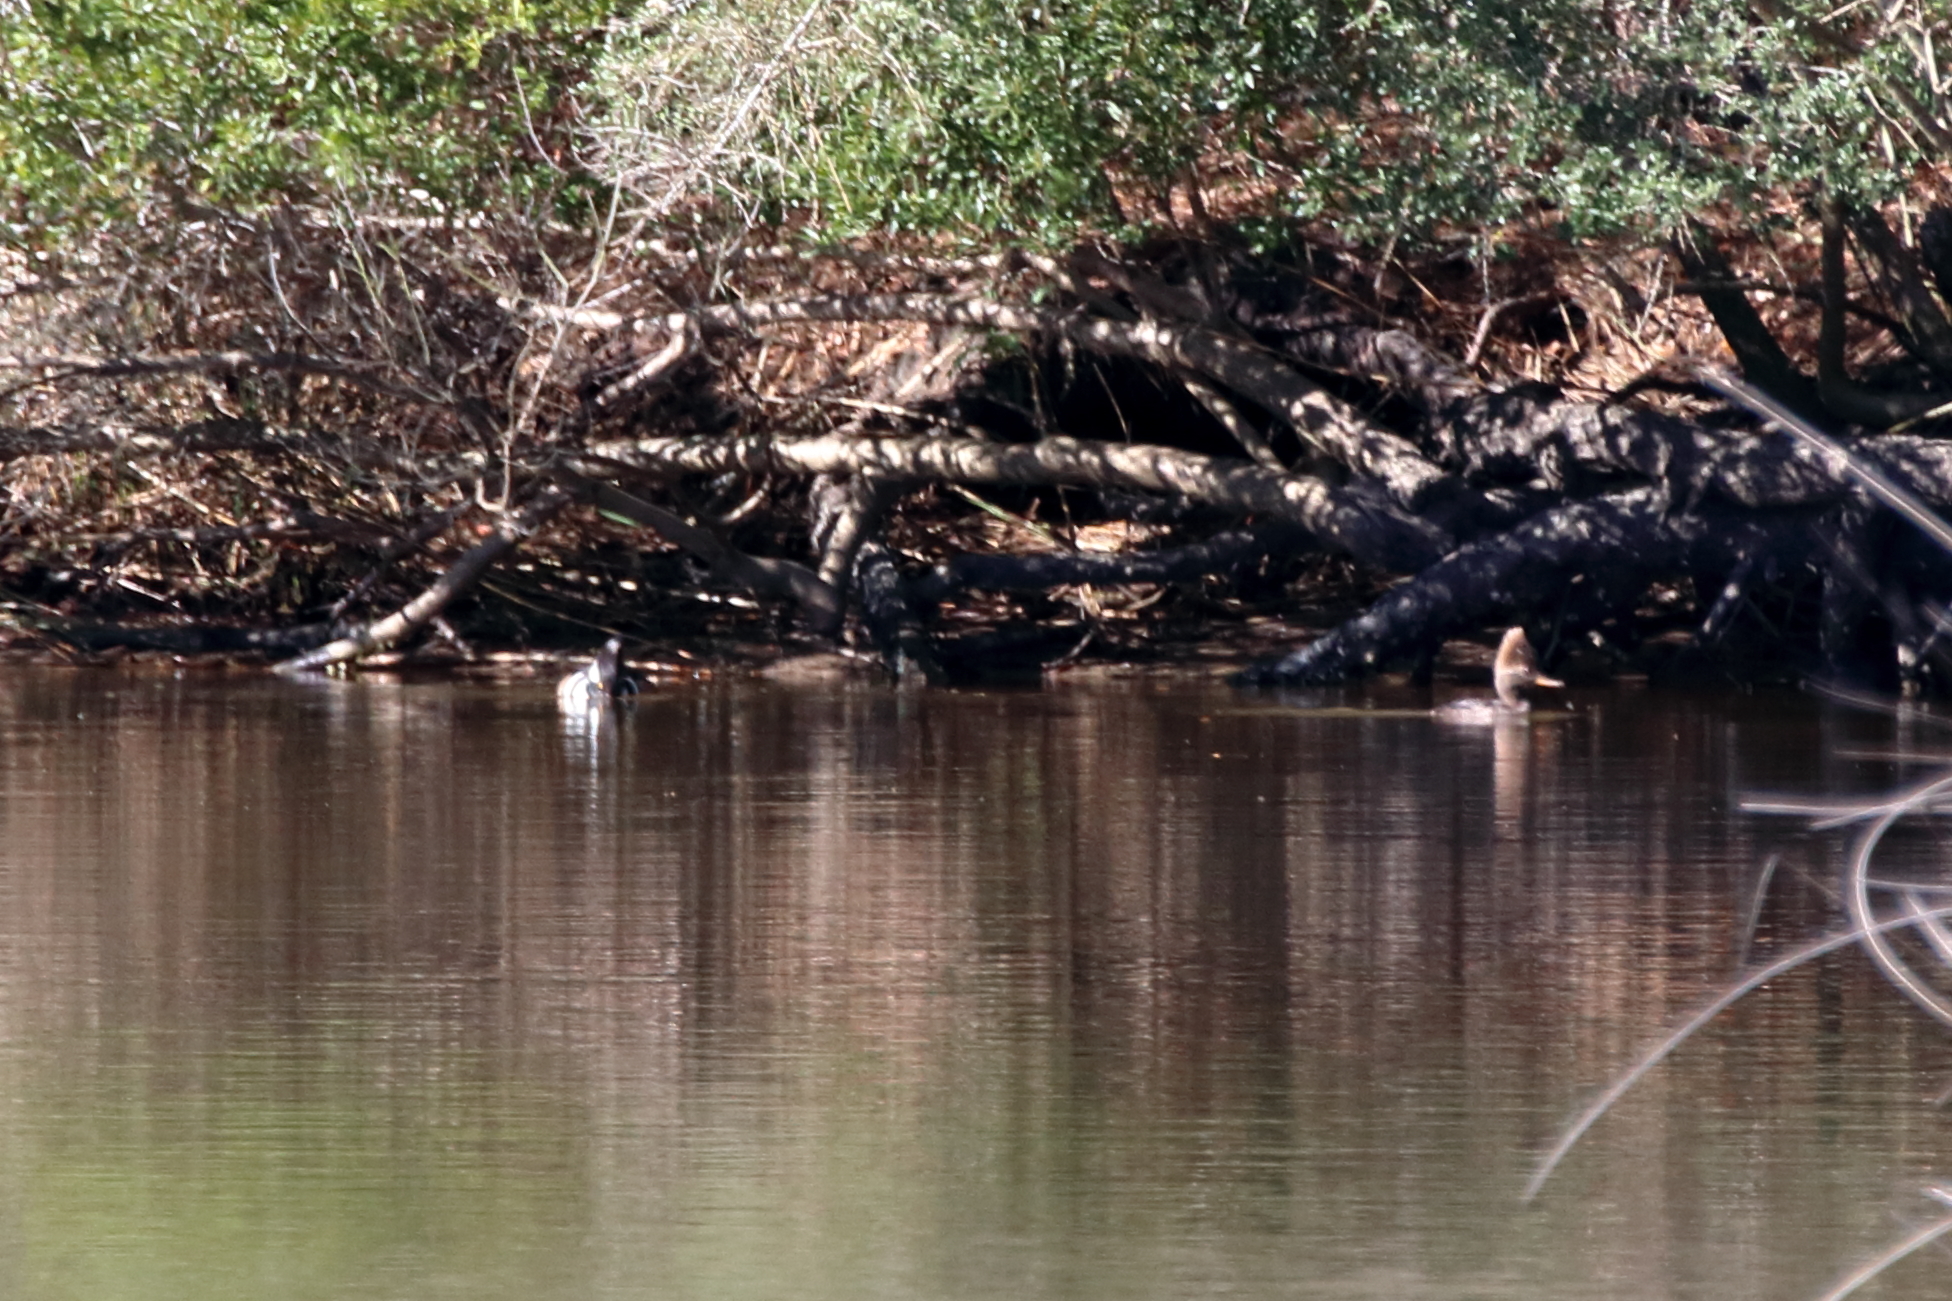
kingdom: Animalia
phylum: Chordata
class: Aves
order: Anseriformes
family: Anatidae
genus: Lophodytes
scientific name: Lophodytes cucullatus
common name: Hooded merganser
